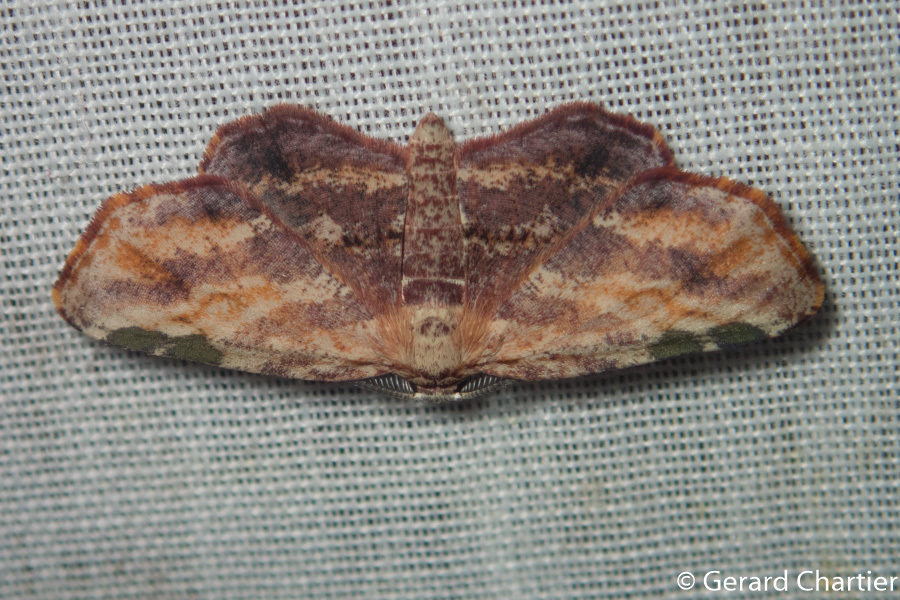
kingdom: Animalia
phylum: Arthropoda
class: Insecta
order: Lepidoptera
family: Geometridae
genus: Achrosis
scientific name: Achrosis longifurca
